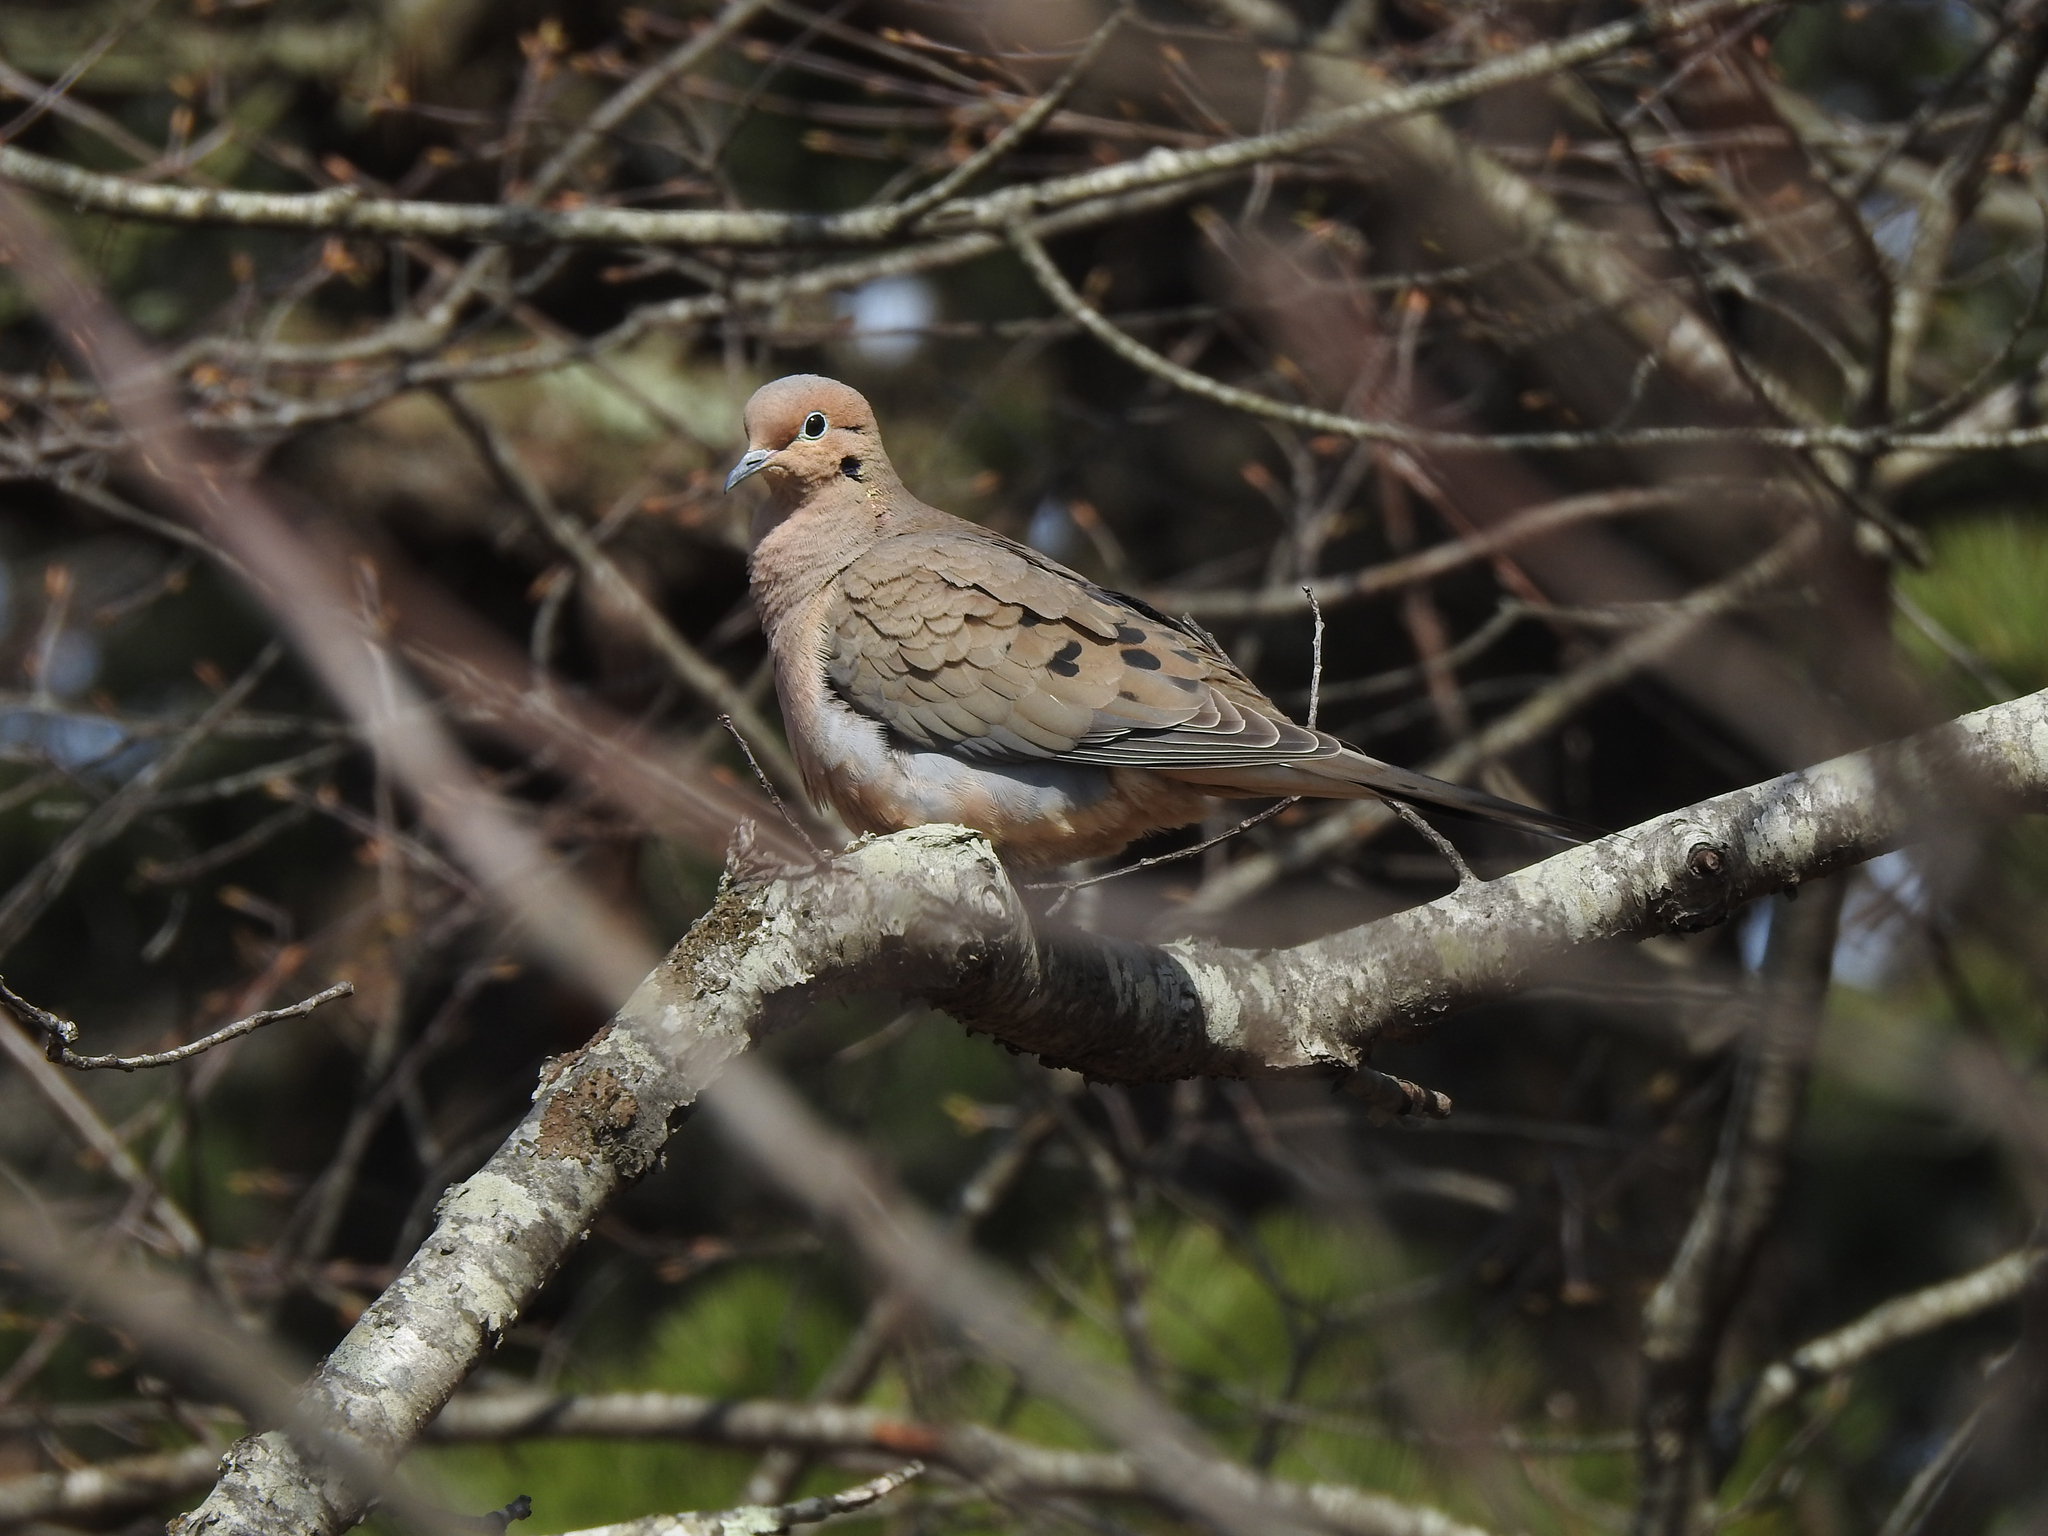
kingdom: Animalia
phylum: Chordata
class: Aves
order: Columbiformes
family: Columbidae
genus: Zenaida
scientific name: Zenaida macroura
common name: Mourning dove
